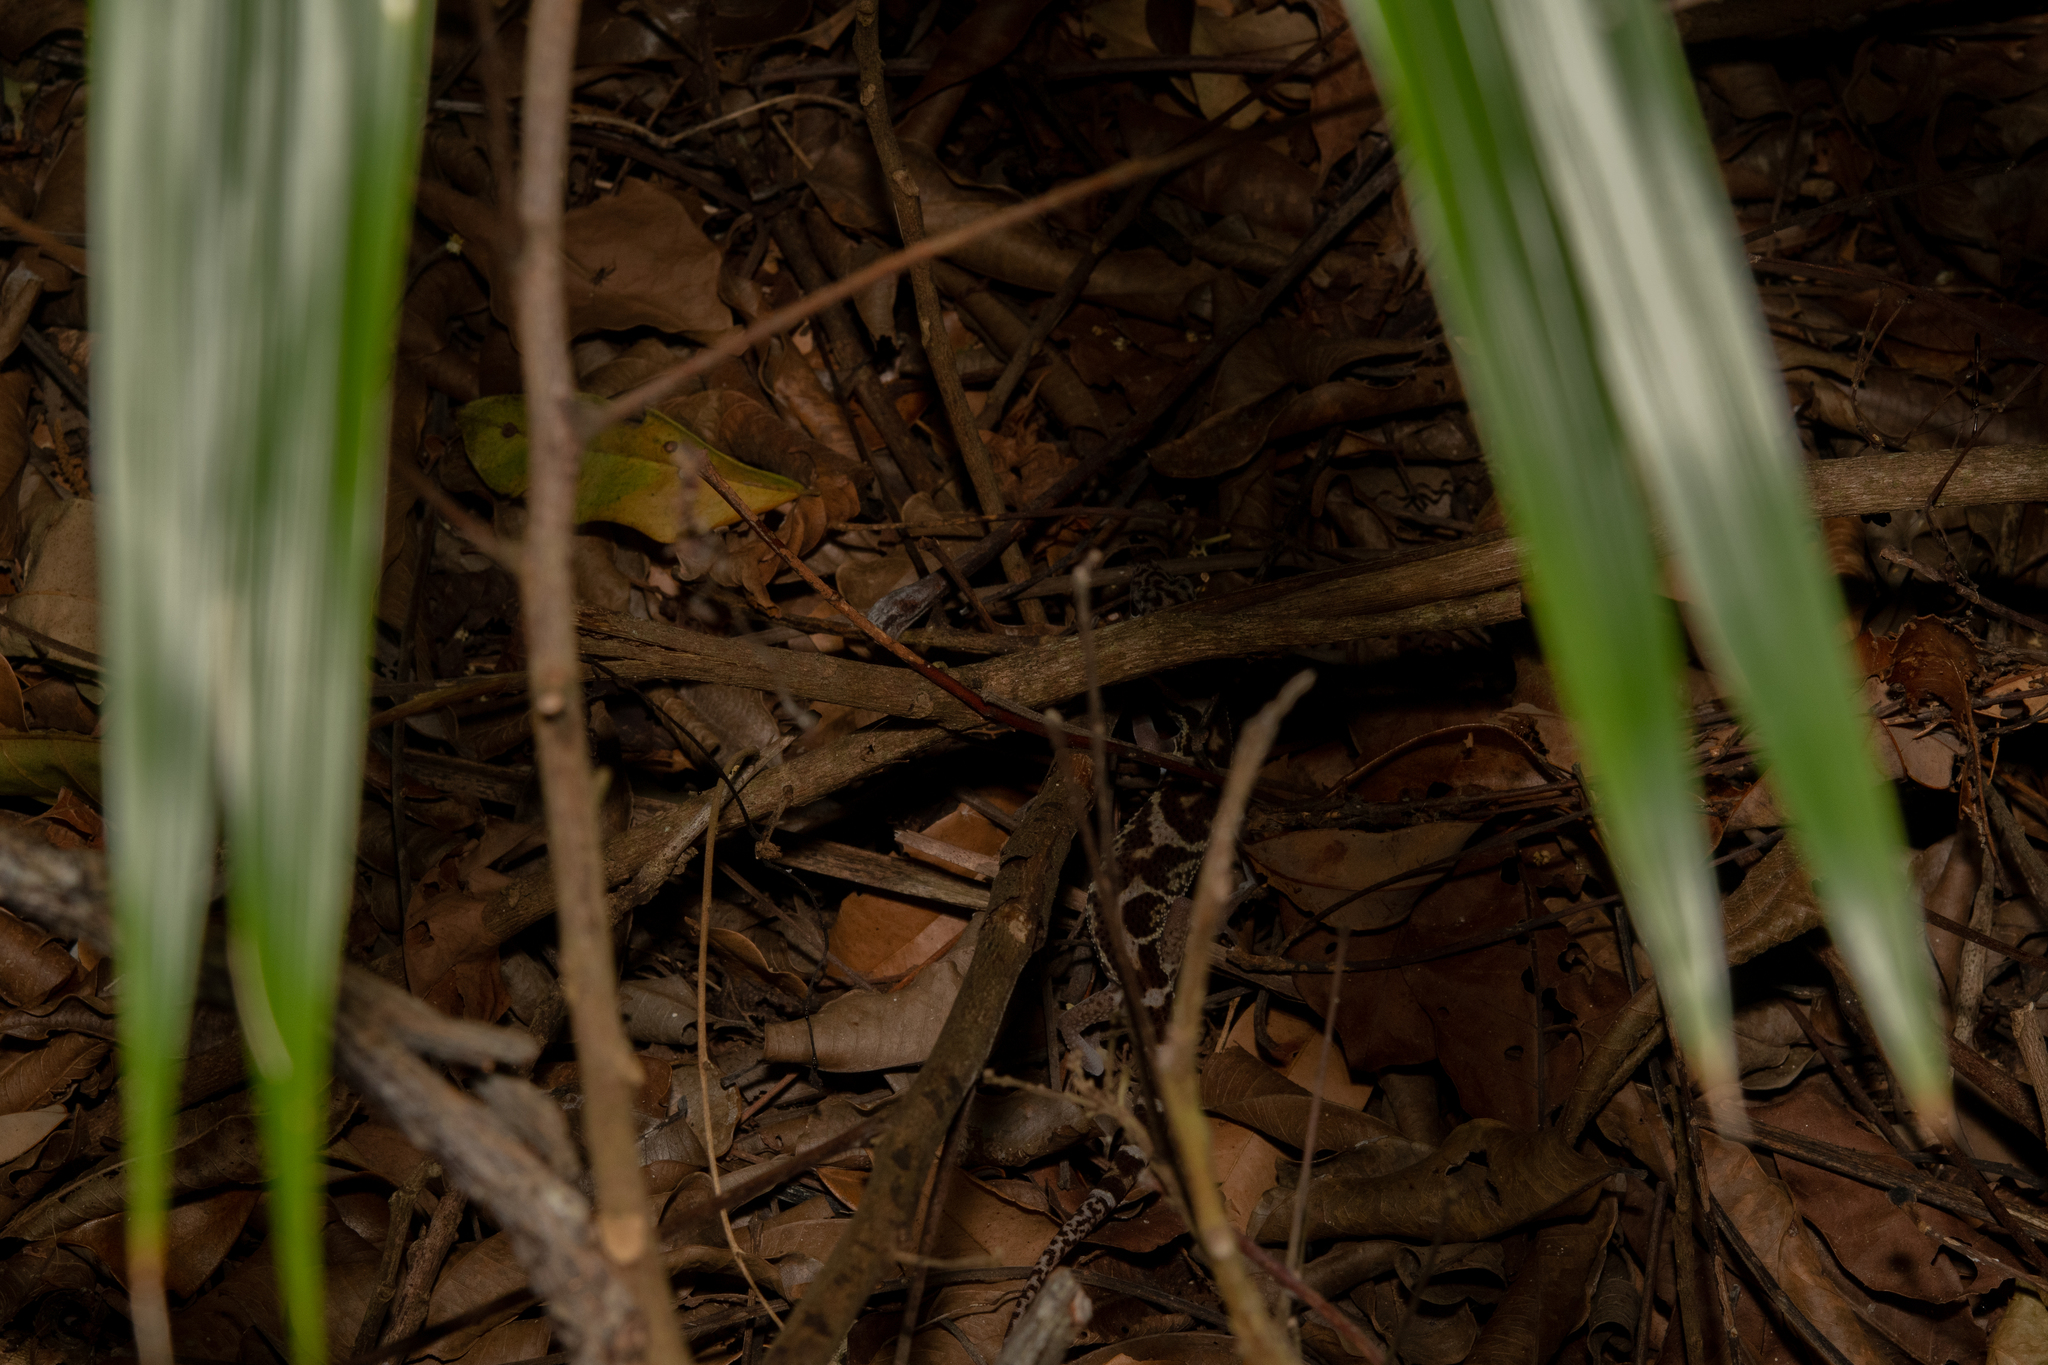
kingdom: Animalia
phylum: Chordata
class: Squamata
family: Eublepharidae
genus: Coleonyx
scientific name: Coleonyx mitratus
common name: Central american banded gecko
